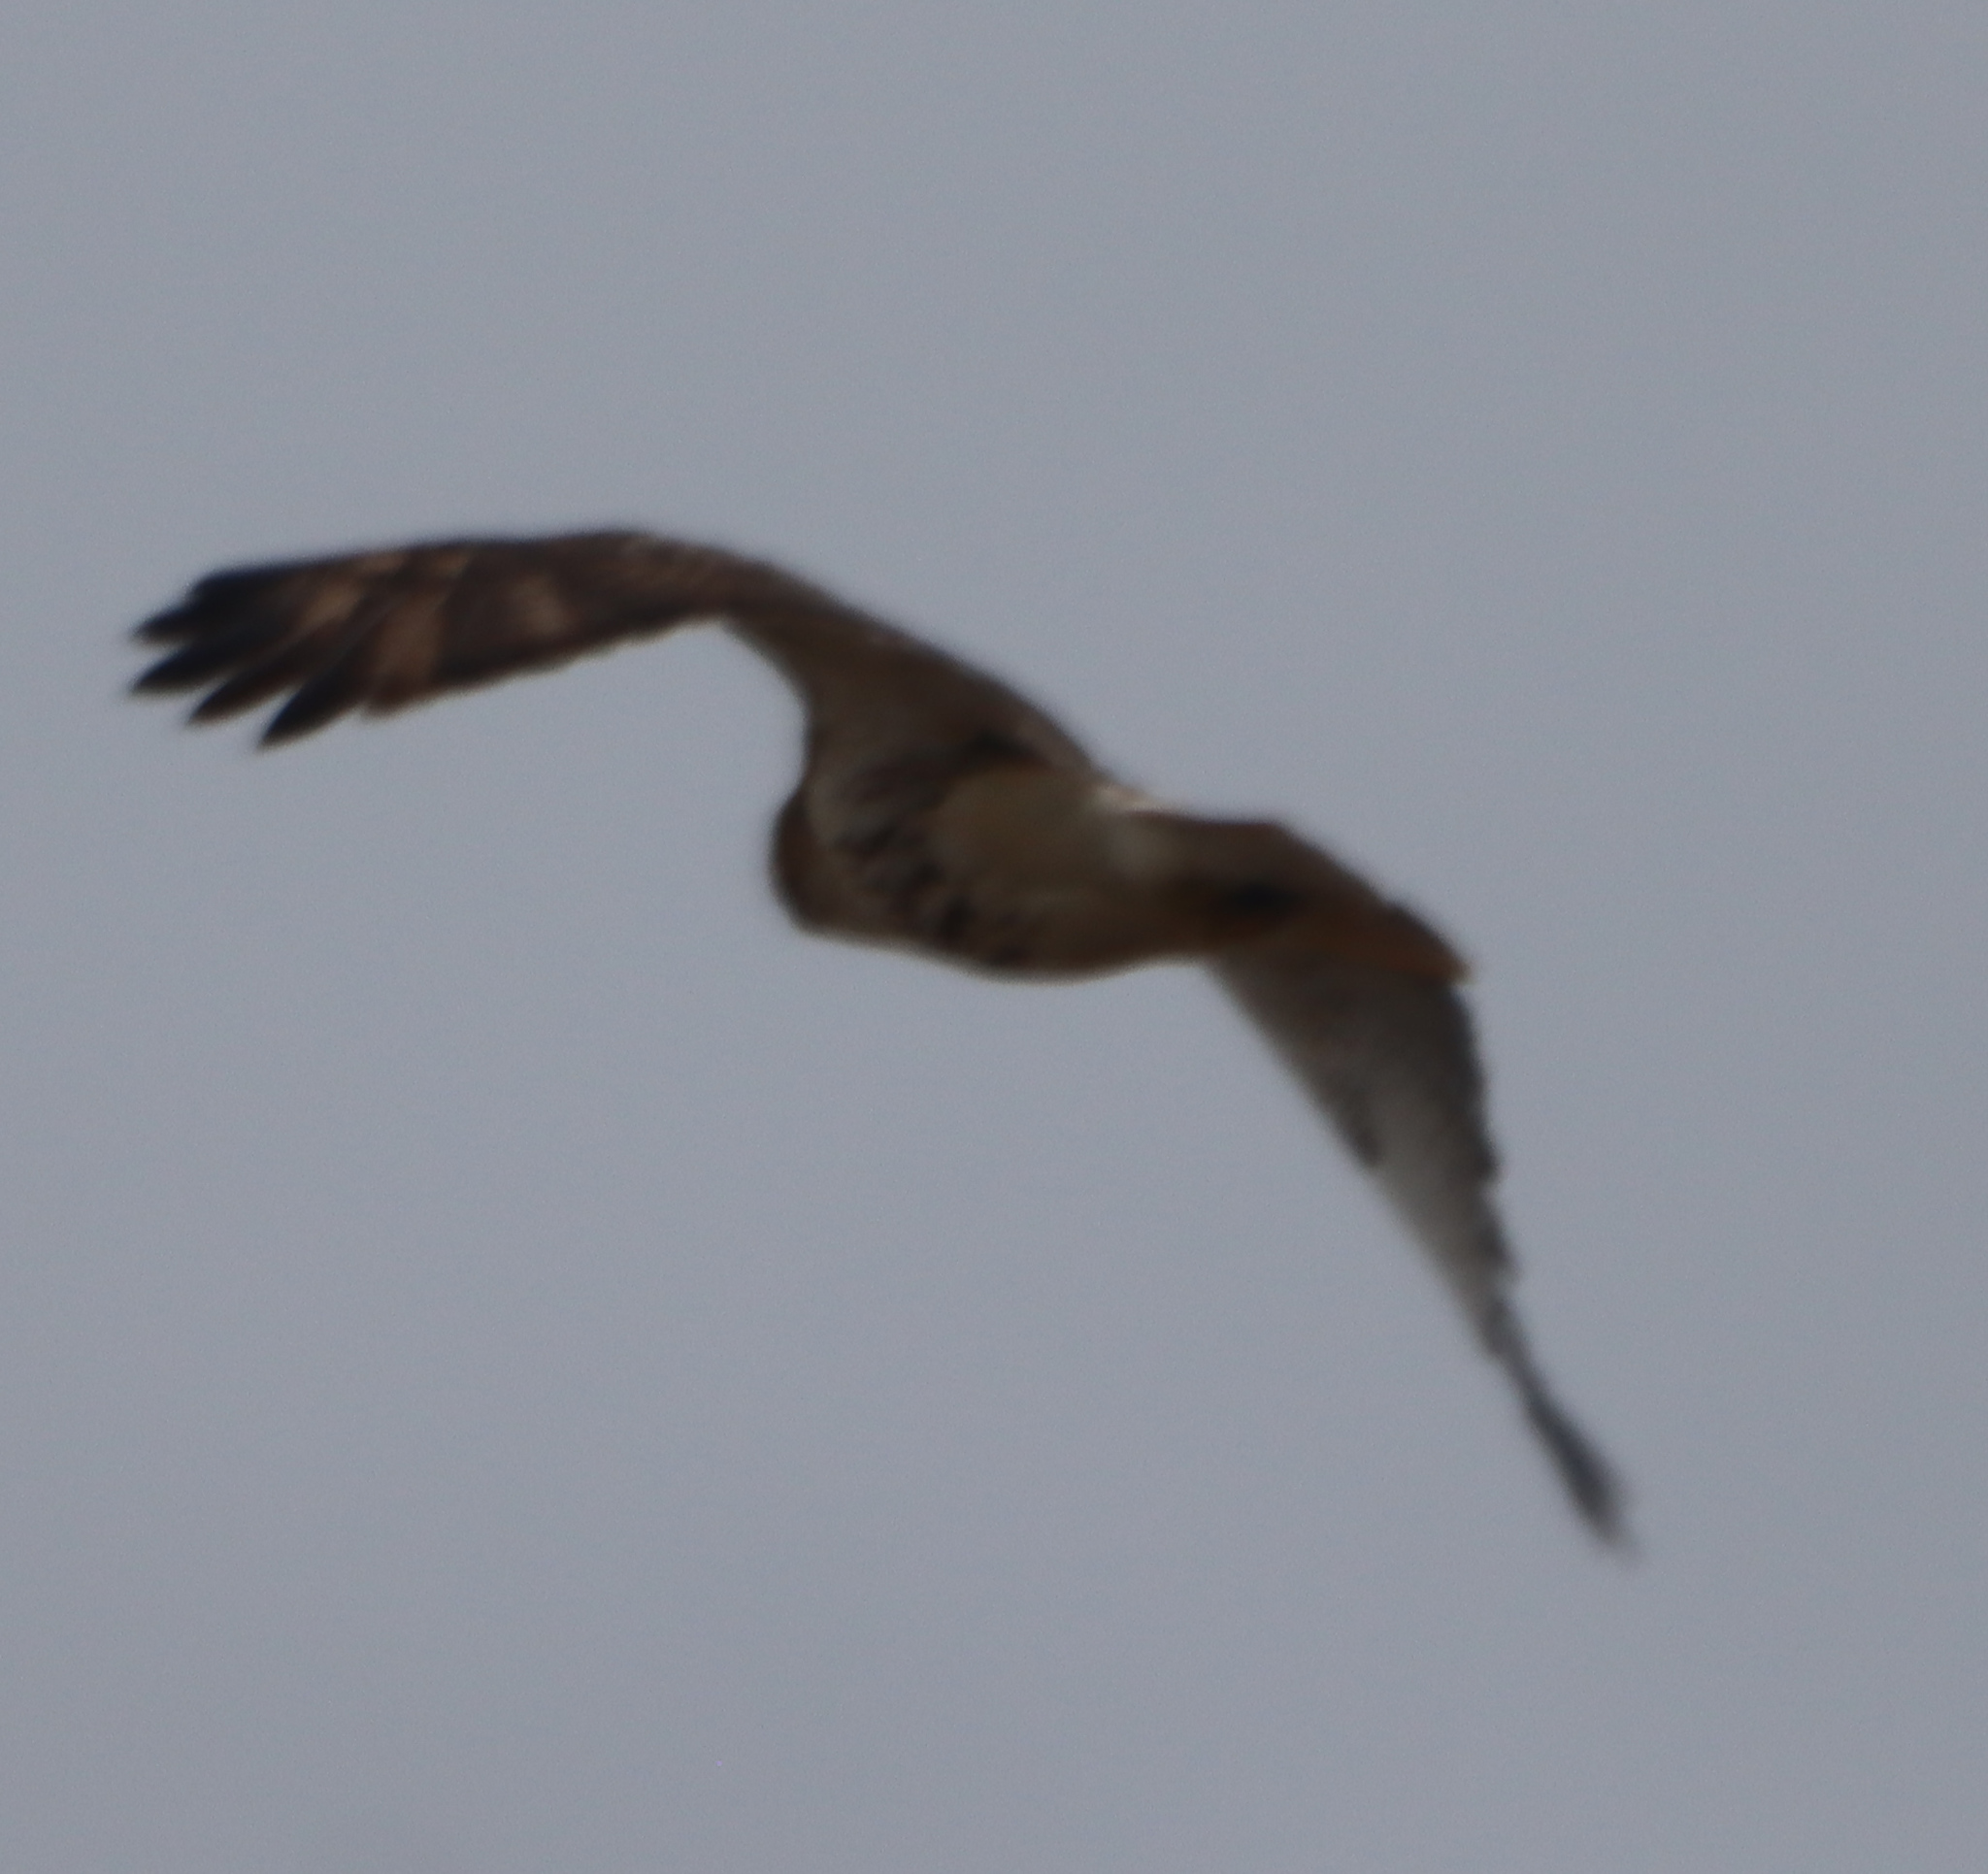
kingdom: Animalia
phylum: Chordata
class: Aves
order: Accipitriformes
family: Accipitridae
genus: Buteo
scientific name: Buteo jamaicensis
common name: Red-tailed hawk
